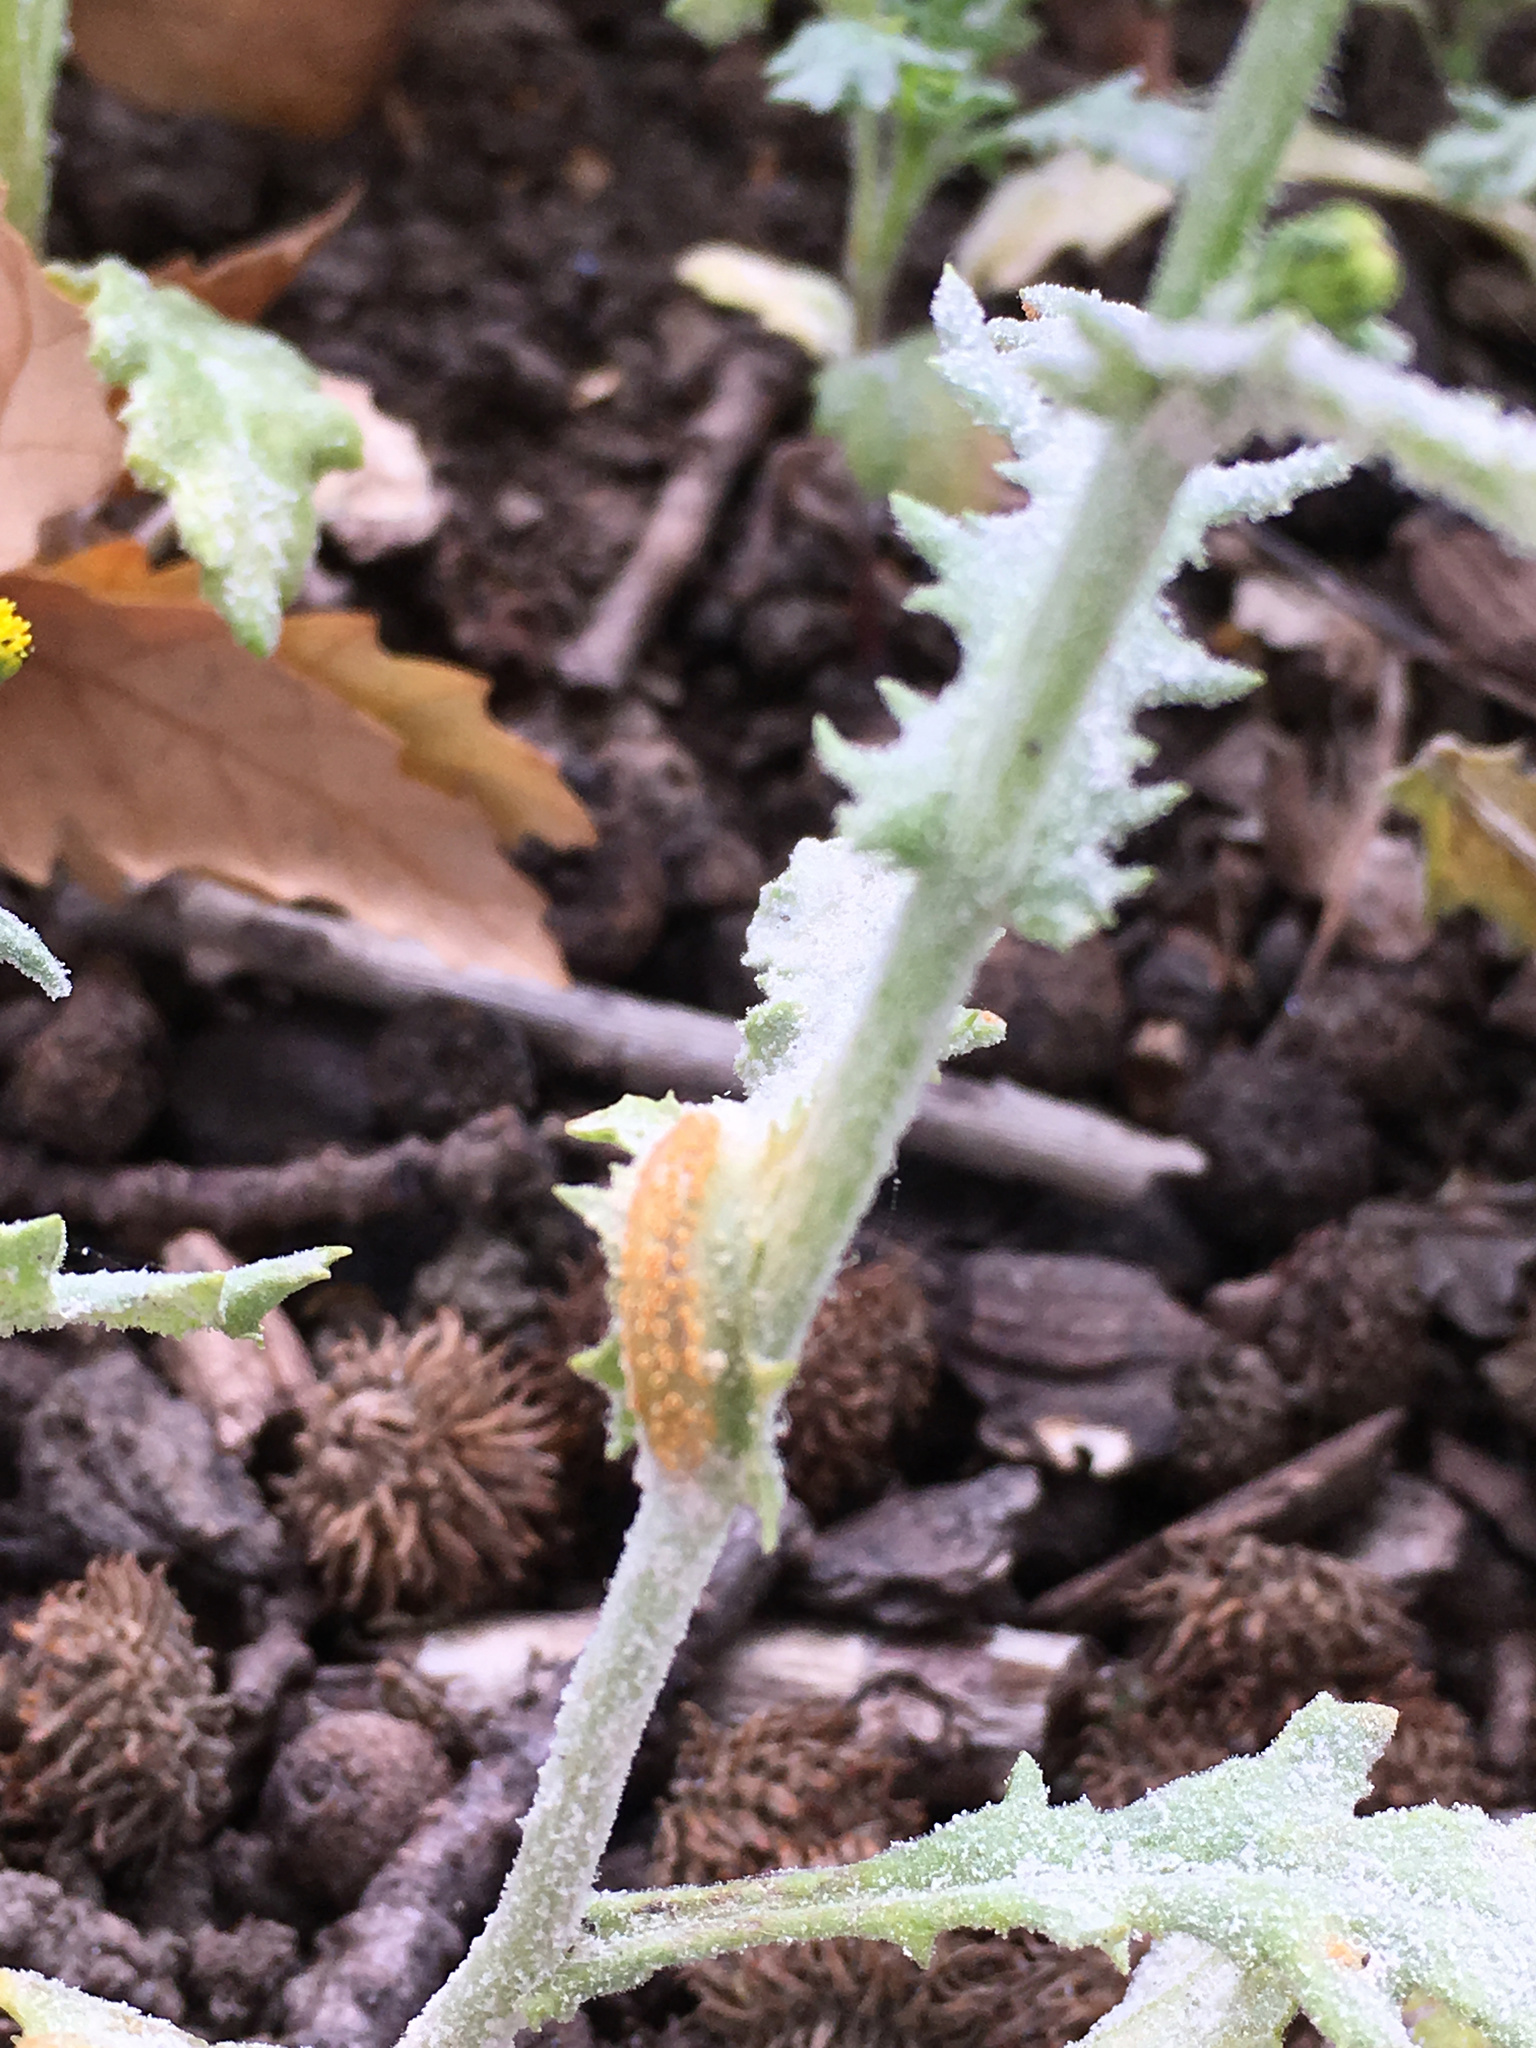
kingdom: Fungi
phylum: Basidiomycota
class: Pucciniomycetes
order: Pucciniales
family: Pucciniaceae
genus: Puccinia
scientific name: Puccinia lagenophorae
